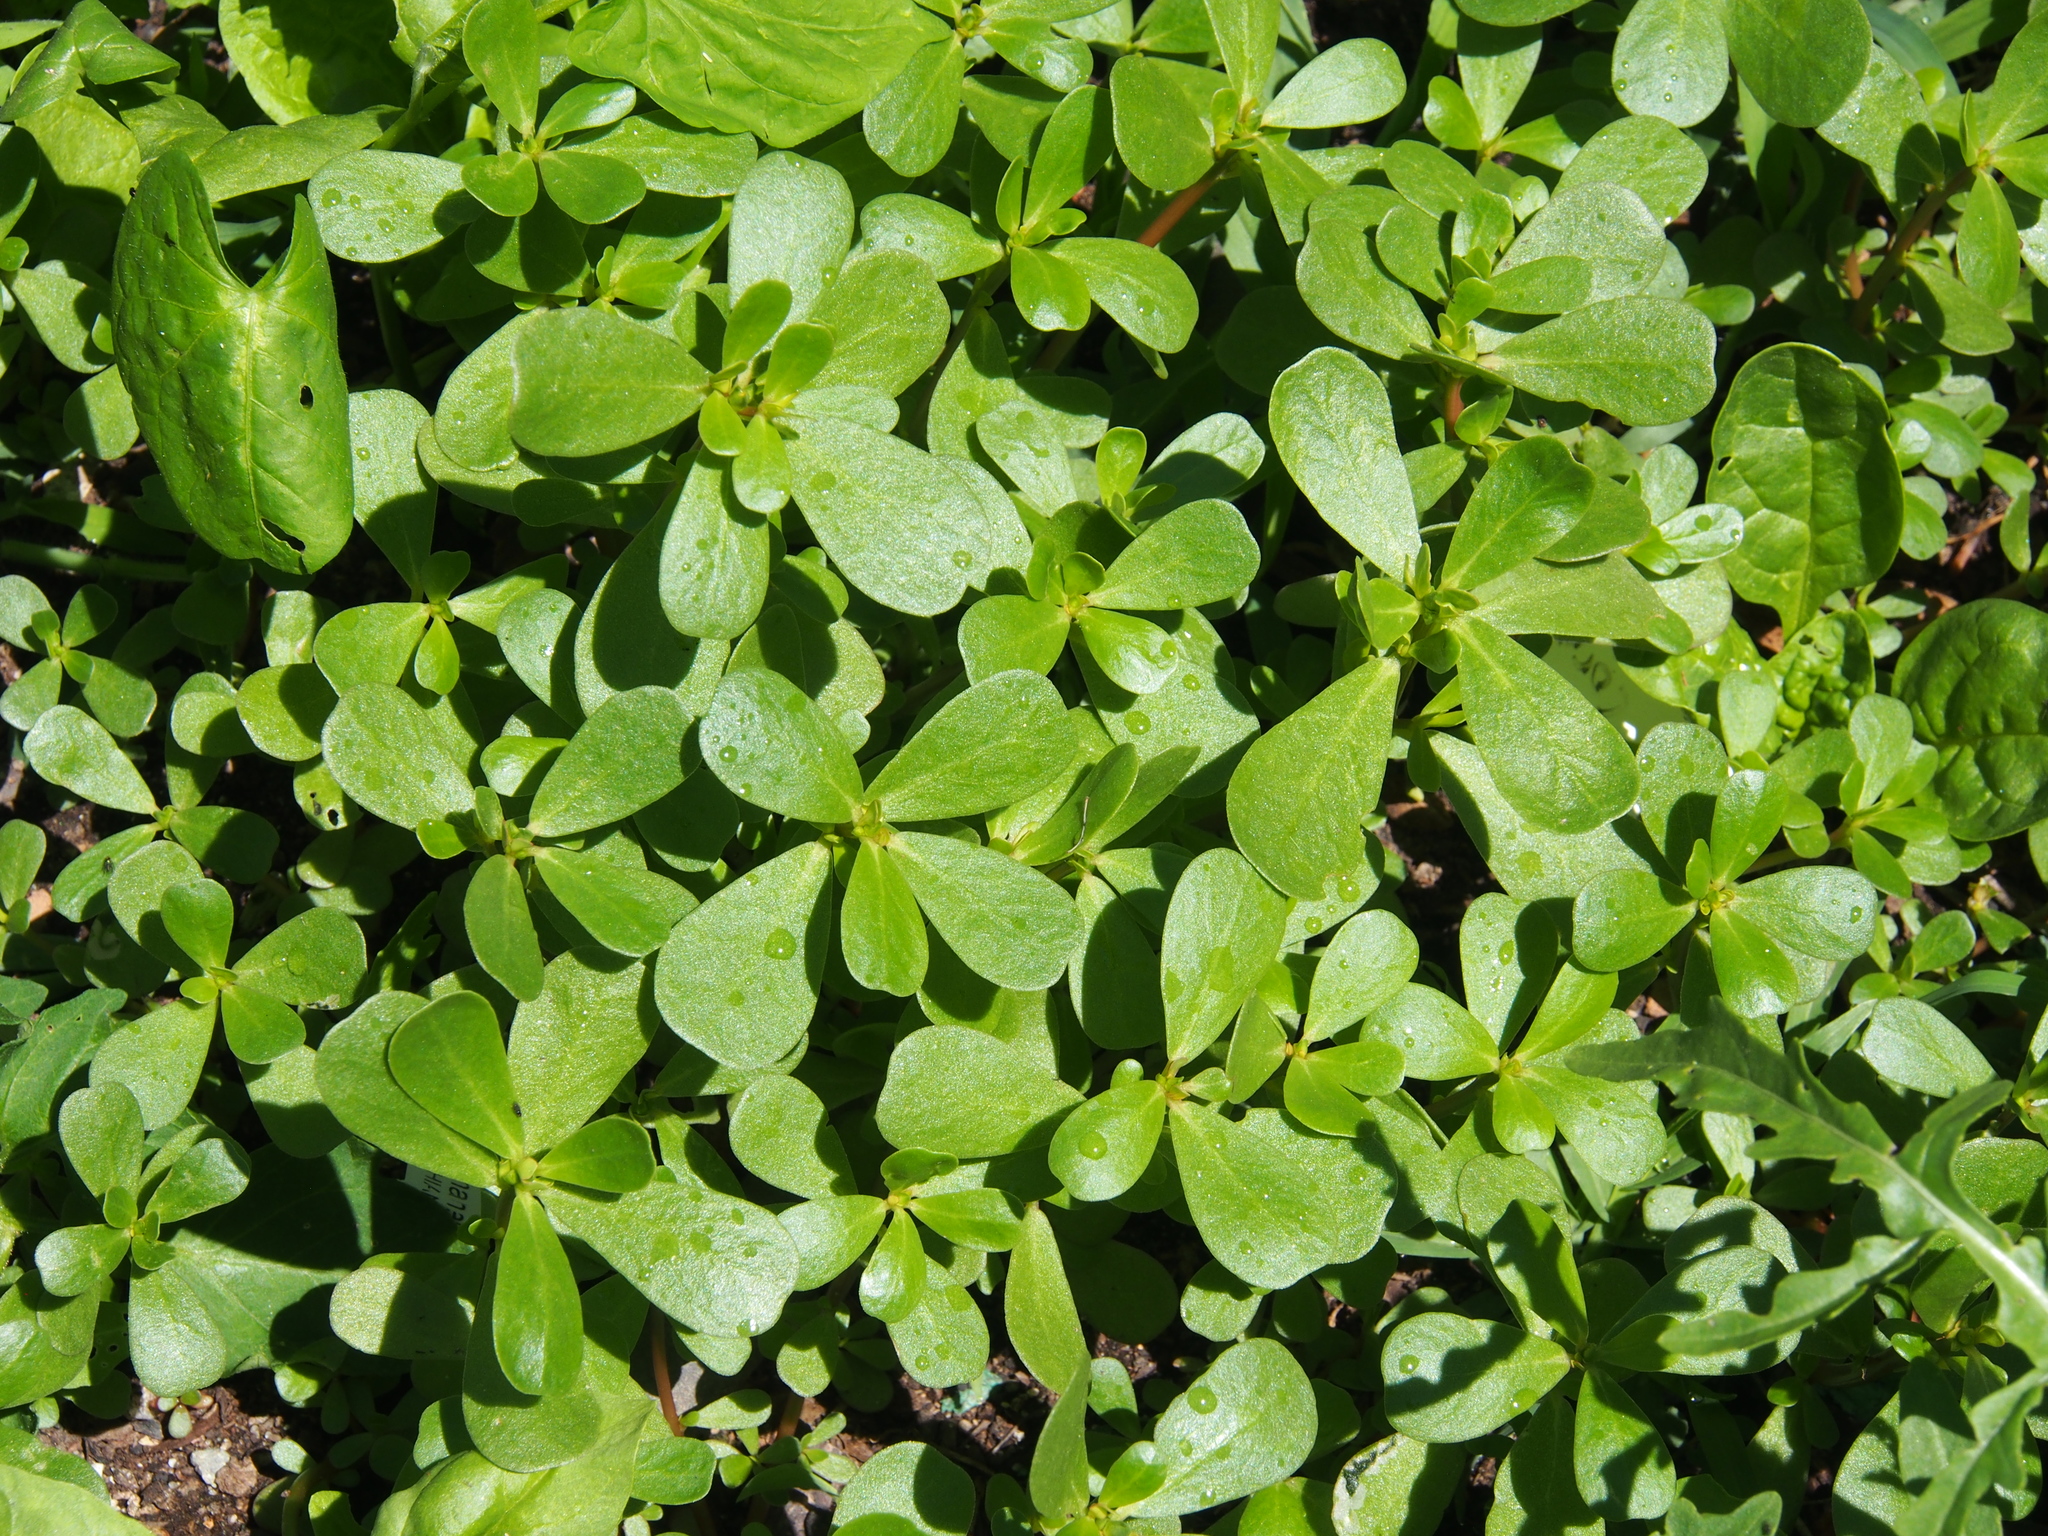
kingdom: Plantae
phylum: Tracheophyta
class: Magnoliopsida
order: Caryophyllales
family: Portulacaceae
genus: Portulaca
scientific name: Portulaca oleracea
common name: Common purslane
